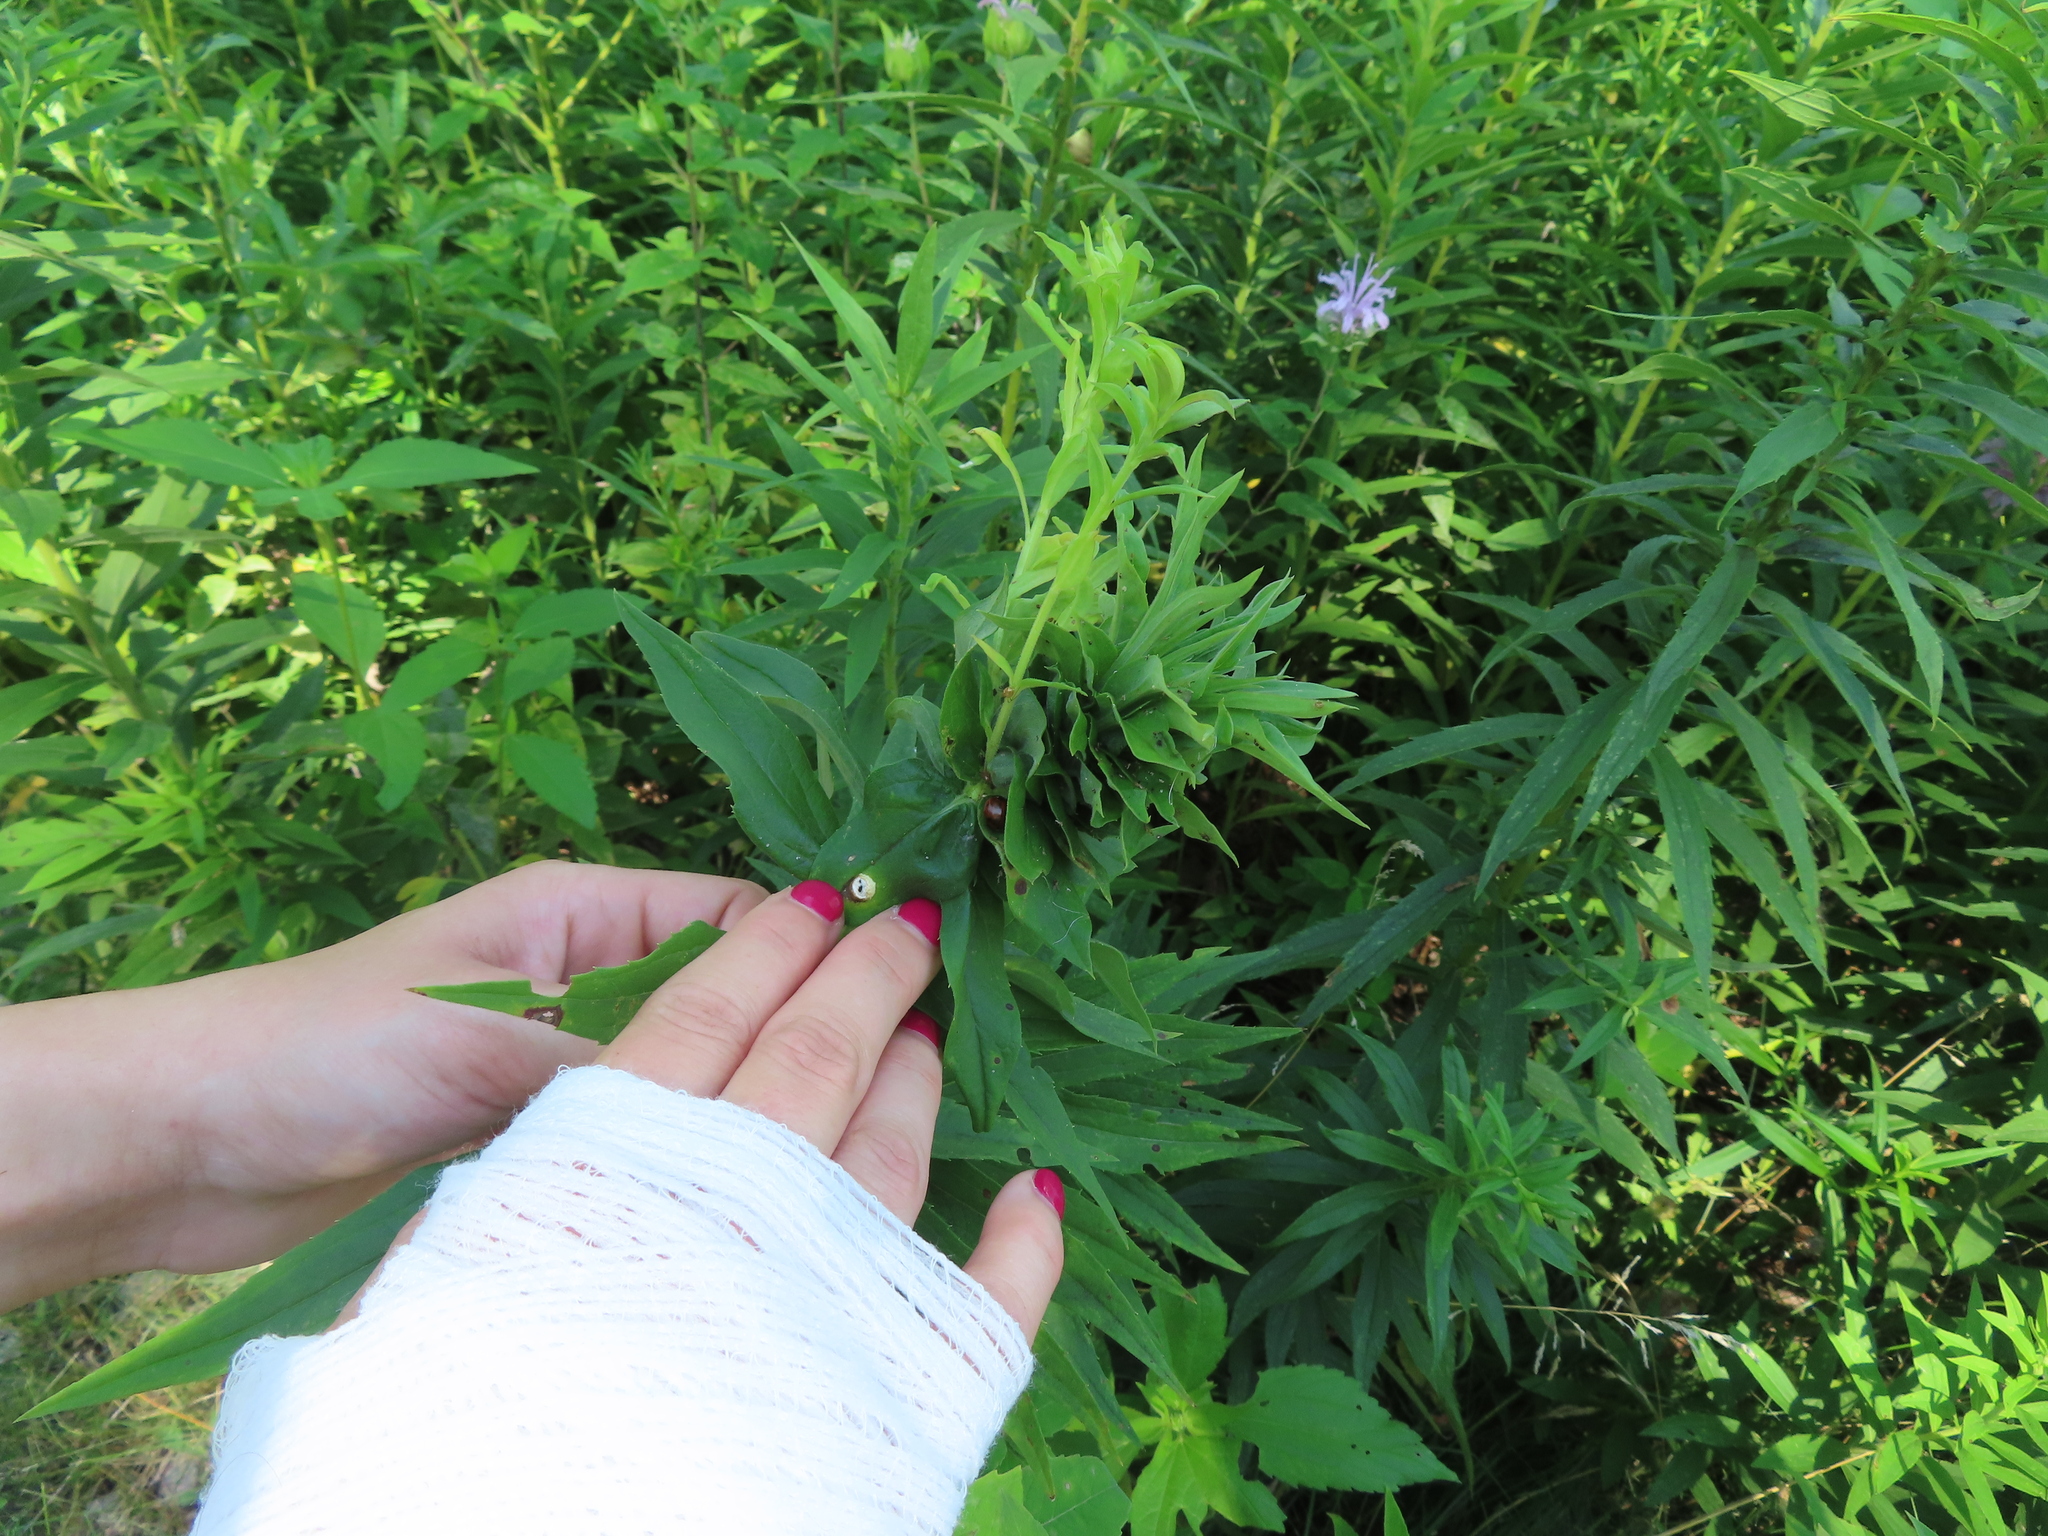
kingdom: Animalia
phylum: Arthropoda
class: Insecta
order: Diptera
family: Cecidomyiidae
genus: Rhopalomyia
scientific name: Rhopalomyia solidaginis
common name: Goldenrod bunch gall midge
